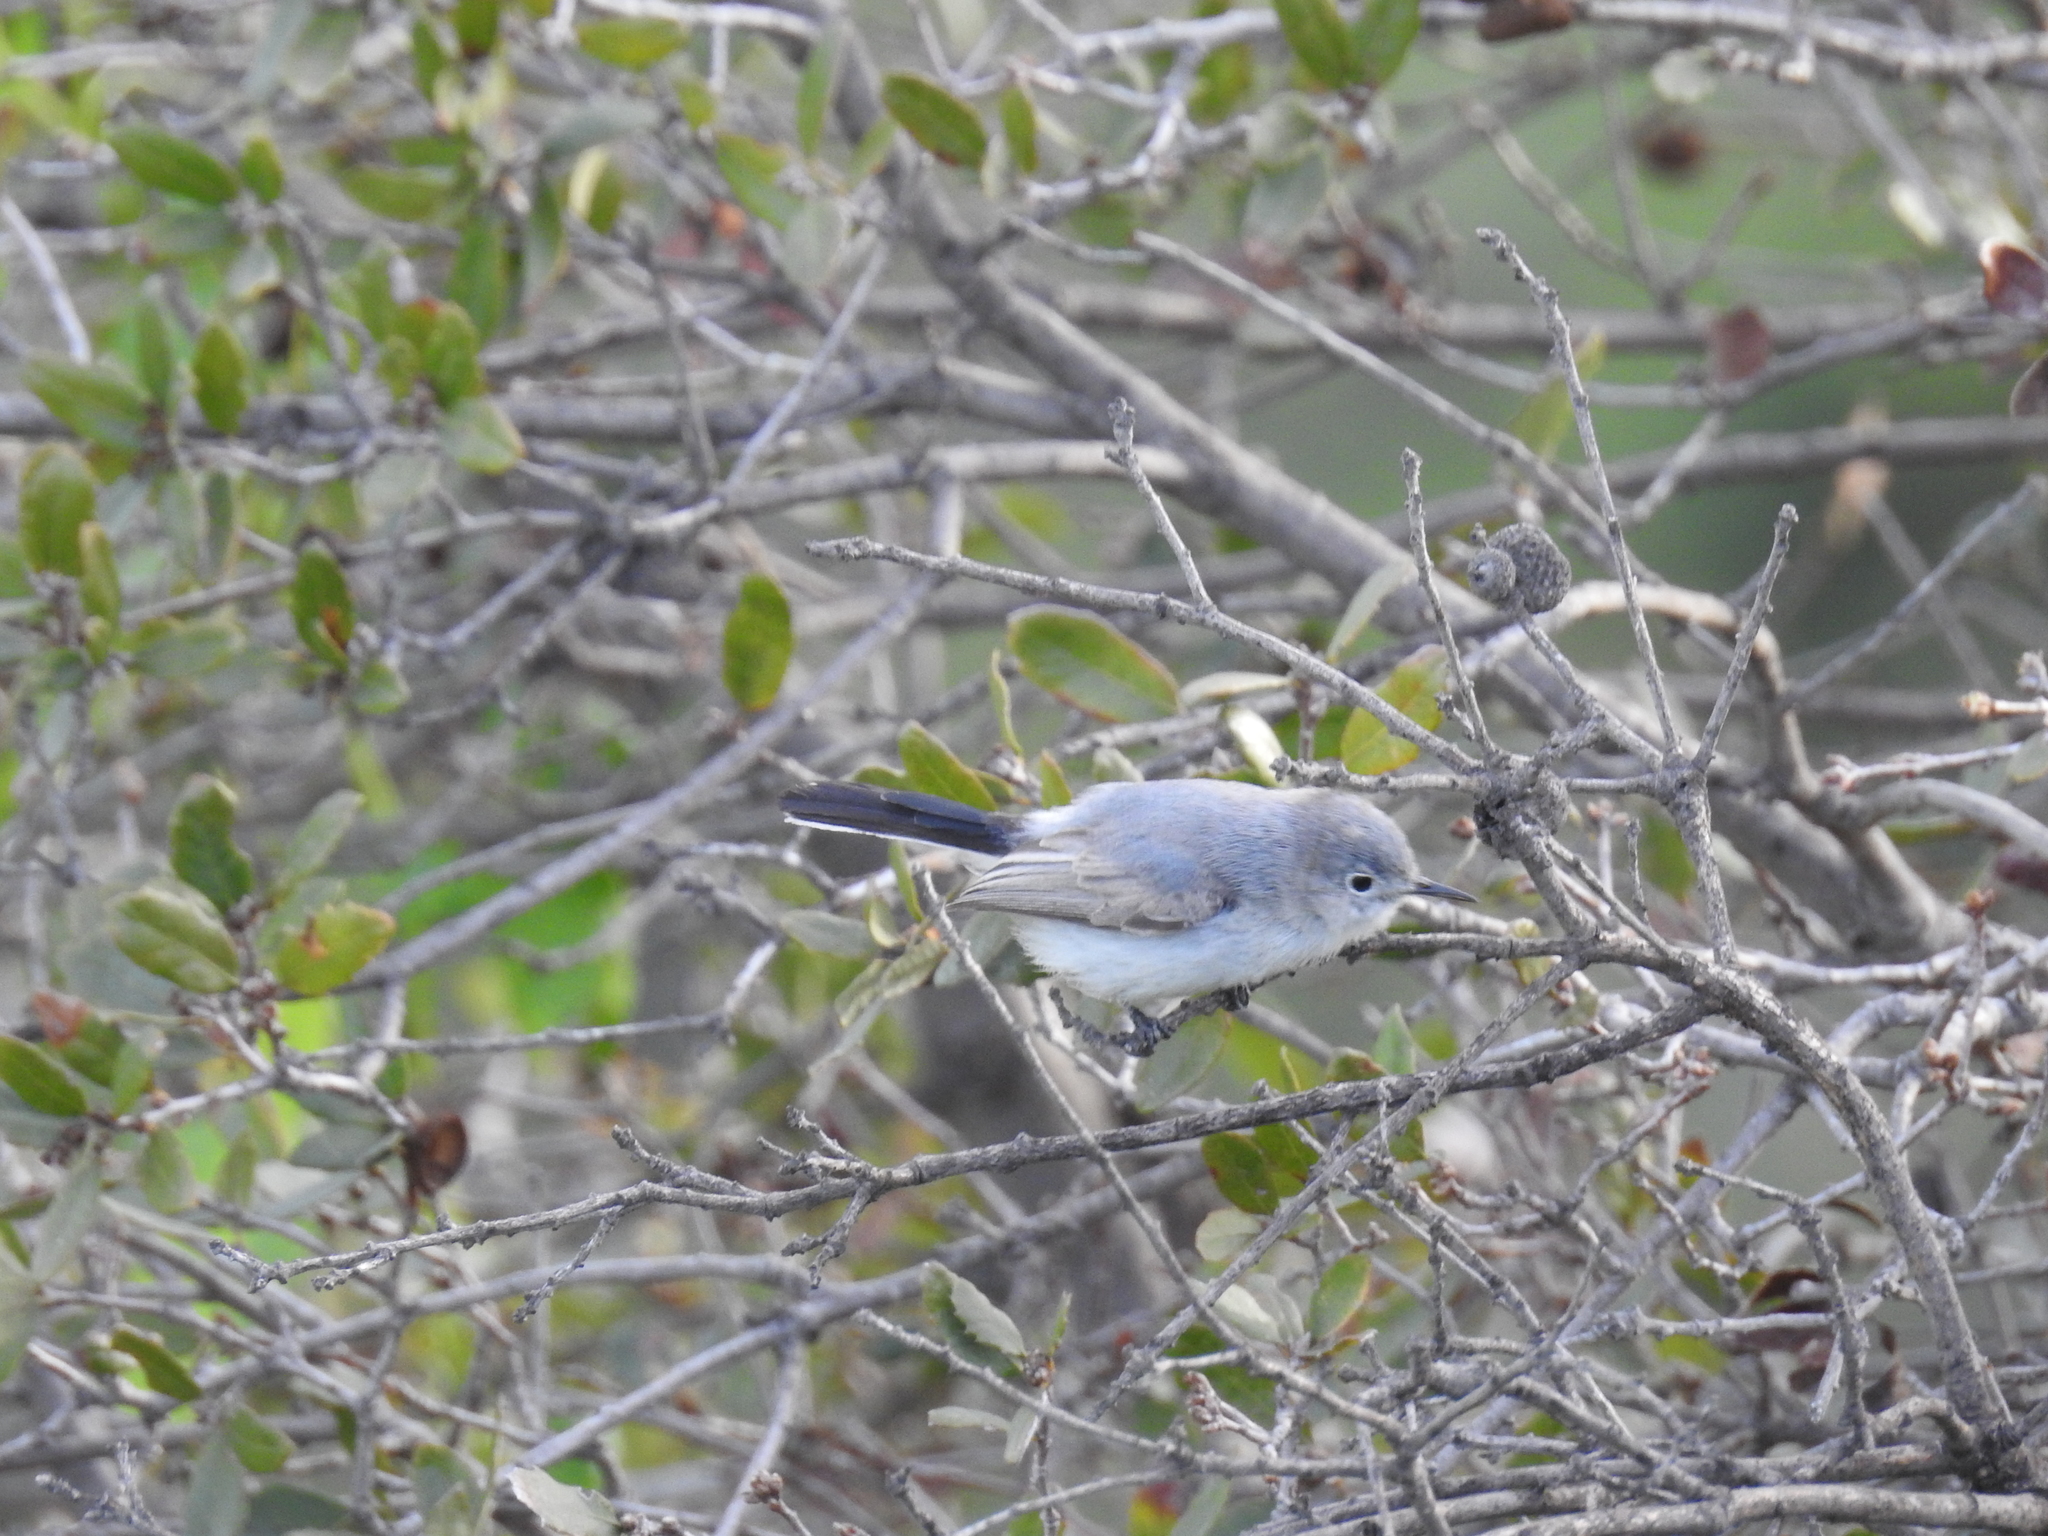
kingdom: Animalia
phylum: Chordata
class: Aves
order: Passeriformes
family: Polioptilidae
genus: Polioptila
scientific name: Polioptila caerulea
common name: Blue-gray gnatcatcher
